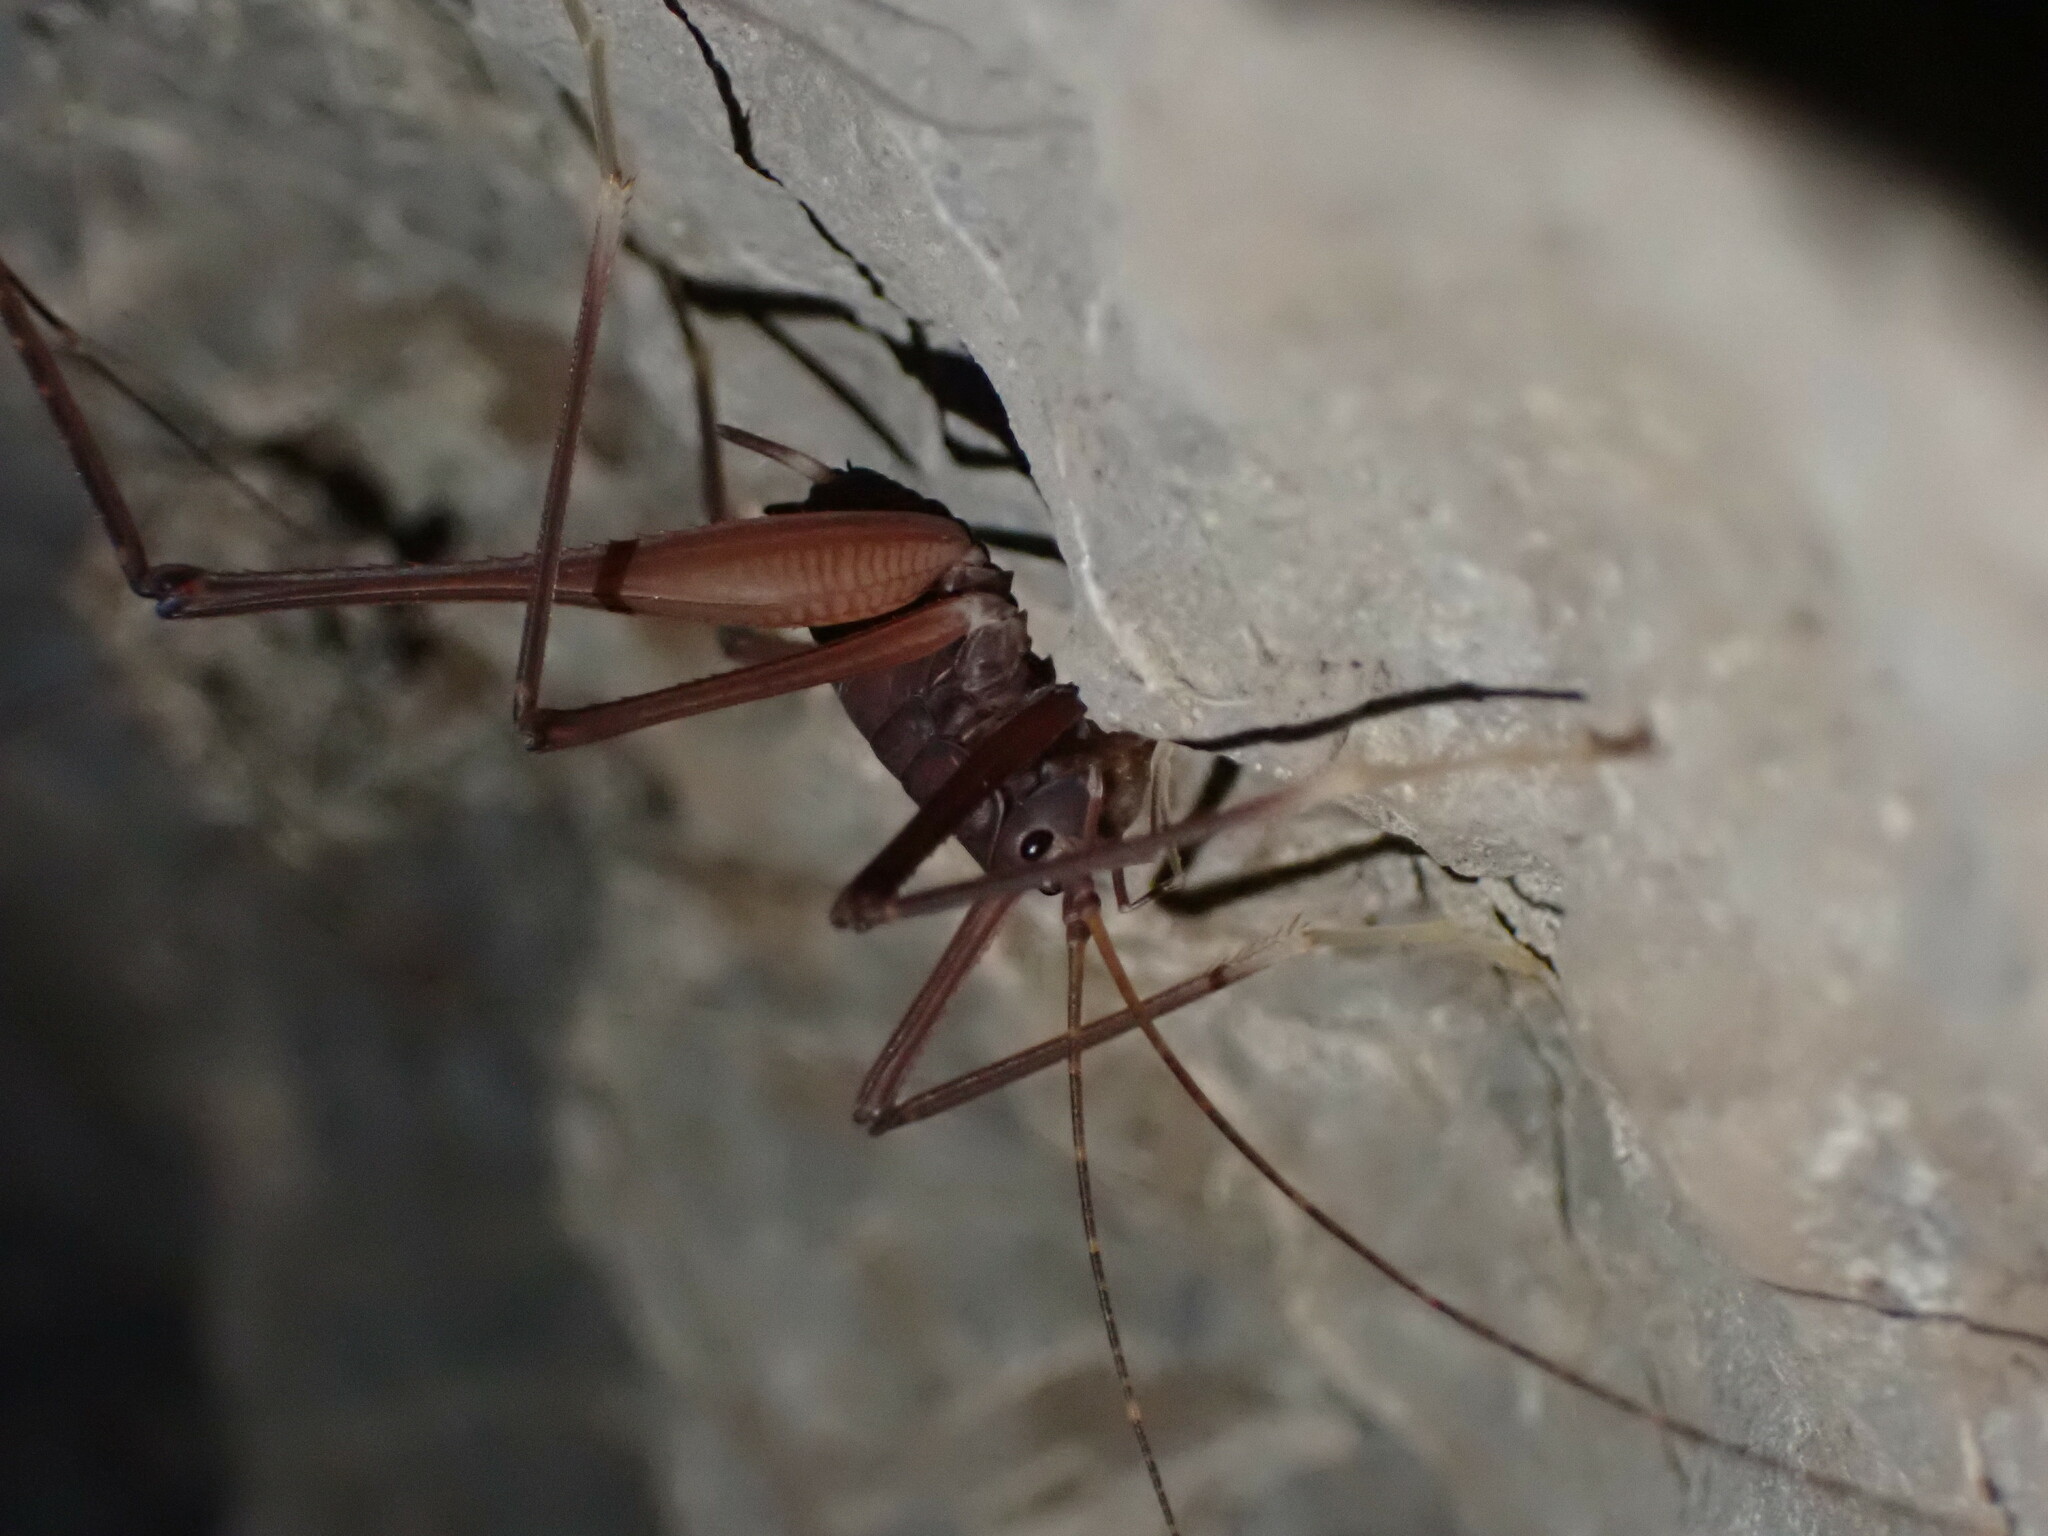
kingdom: Animalia
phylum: Arthropoda
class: Insecta
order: Orthoptera
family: Rhaphidophoridae
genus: Tropidischia
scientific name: Tropidischia xanthostoma
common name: Square-legged camel cricket
